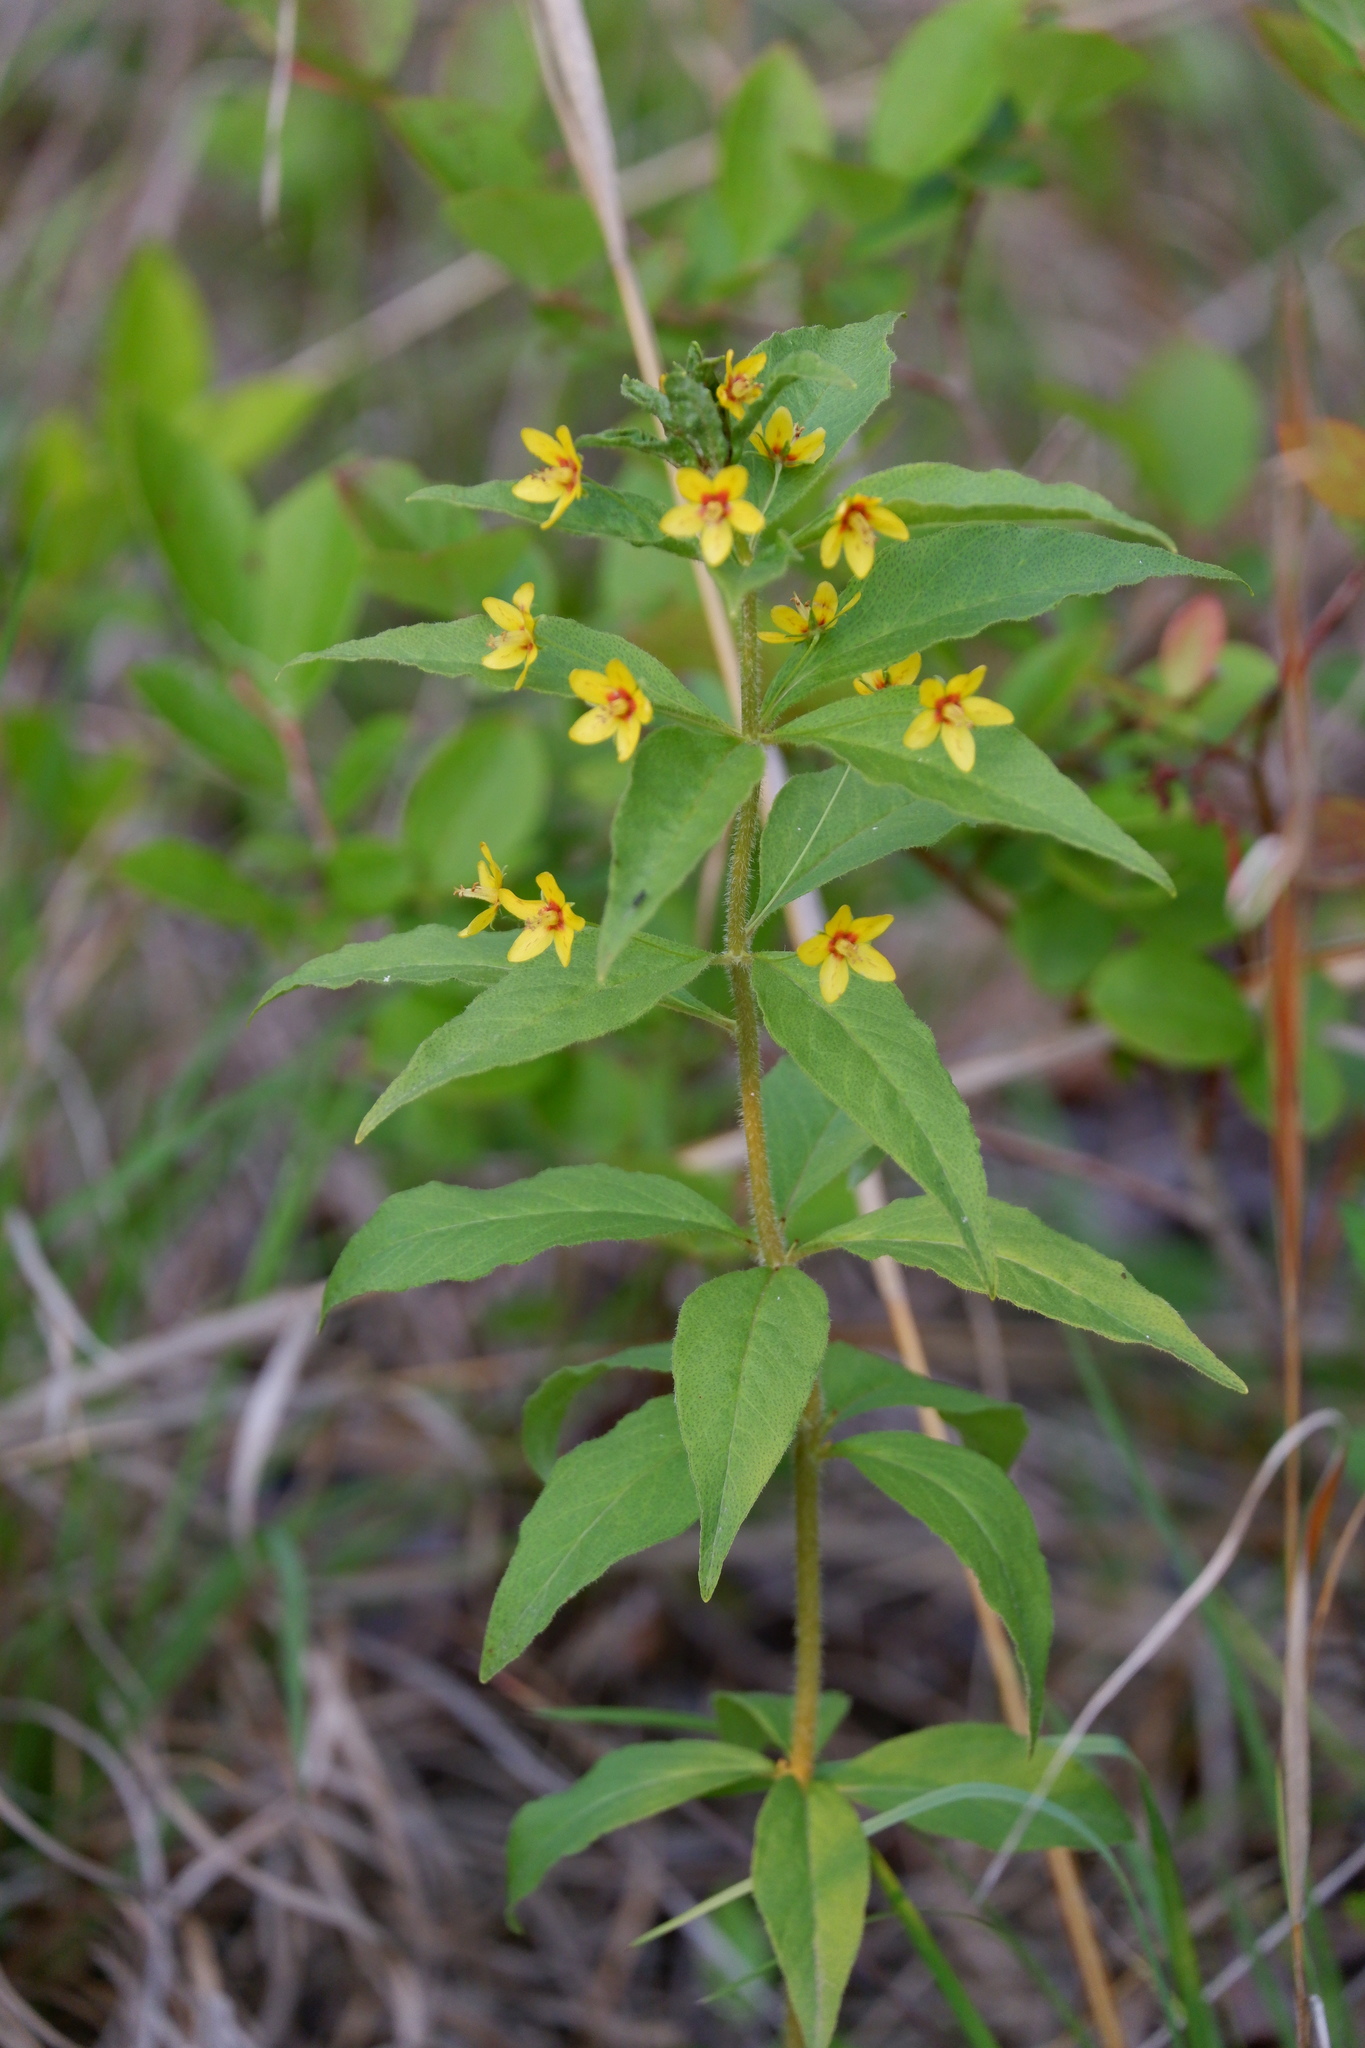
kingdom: Plantae
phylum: Tracheophyta
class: Magnoliopsida
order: Ericales
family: Primulaceae
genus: Lysimachia
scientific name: Lysimachia quadrifolia
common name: Whorled loosestrife
